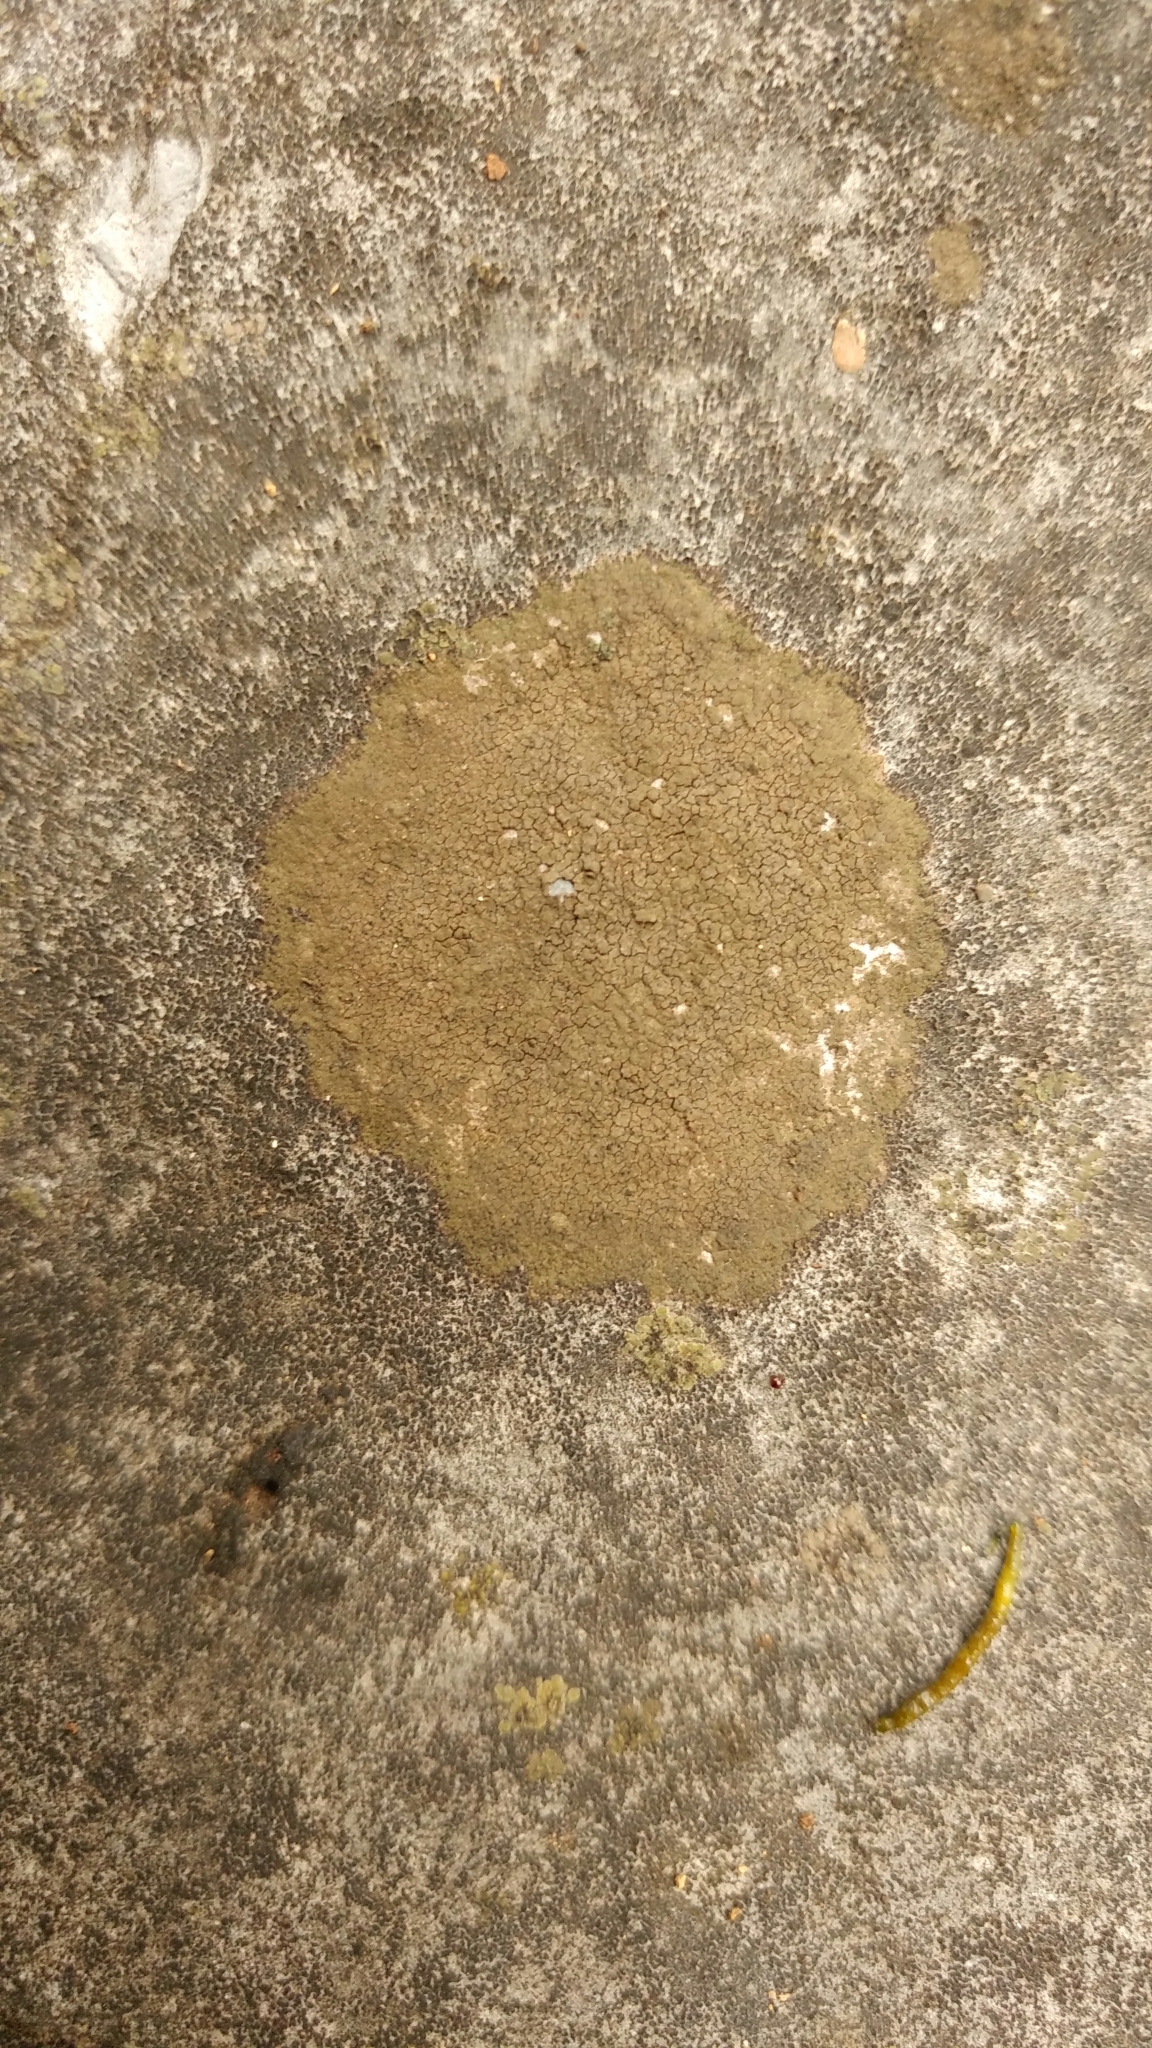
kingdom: Fungi
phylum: Ascomycota
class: Eurotiomycetes
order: Verrucariales
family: Verrucariaceae
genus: Staurothele
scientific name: Staurothele monicae
